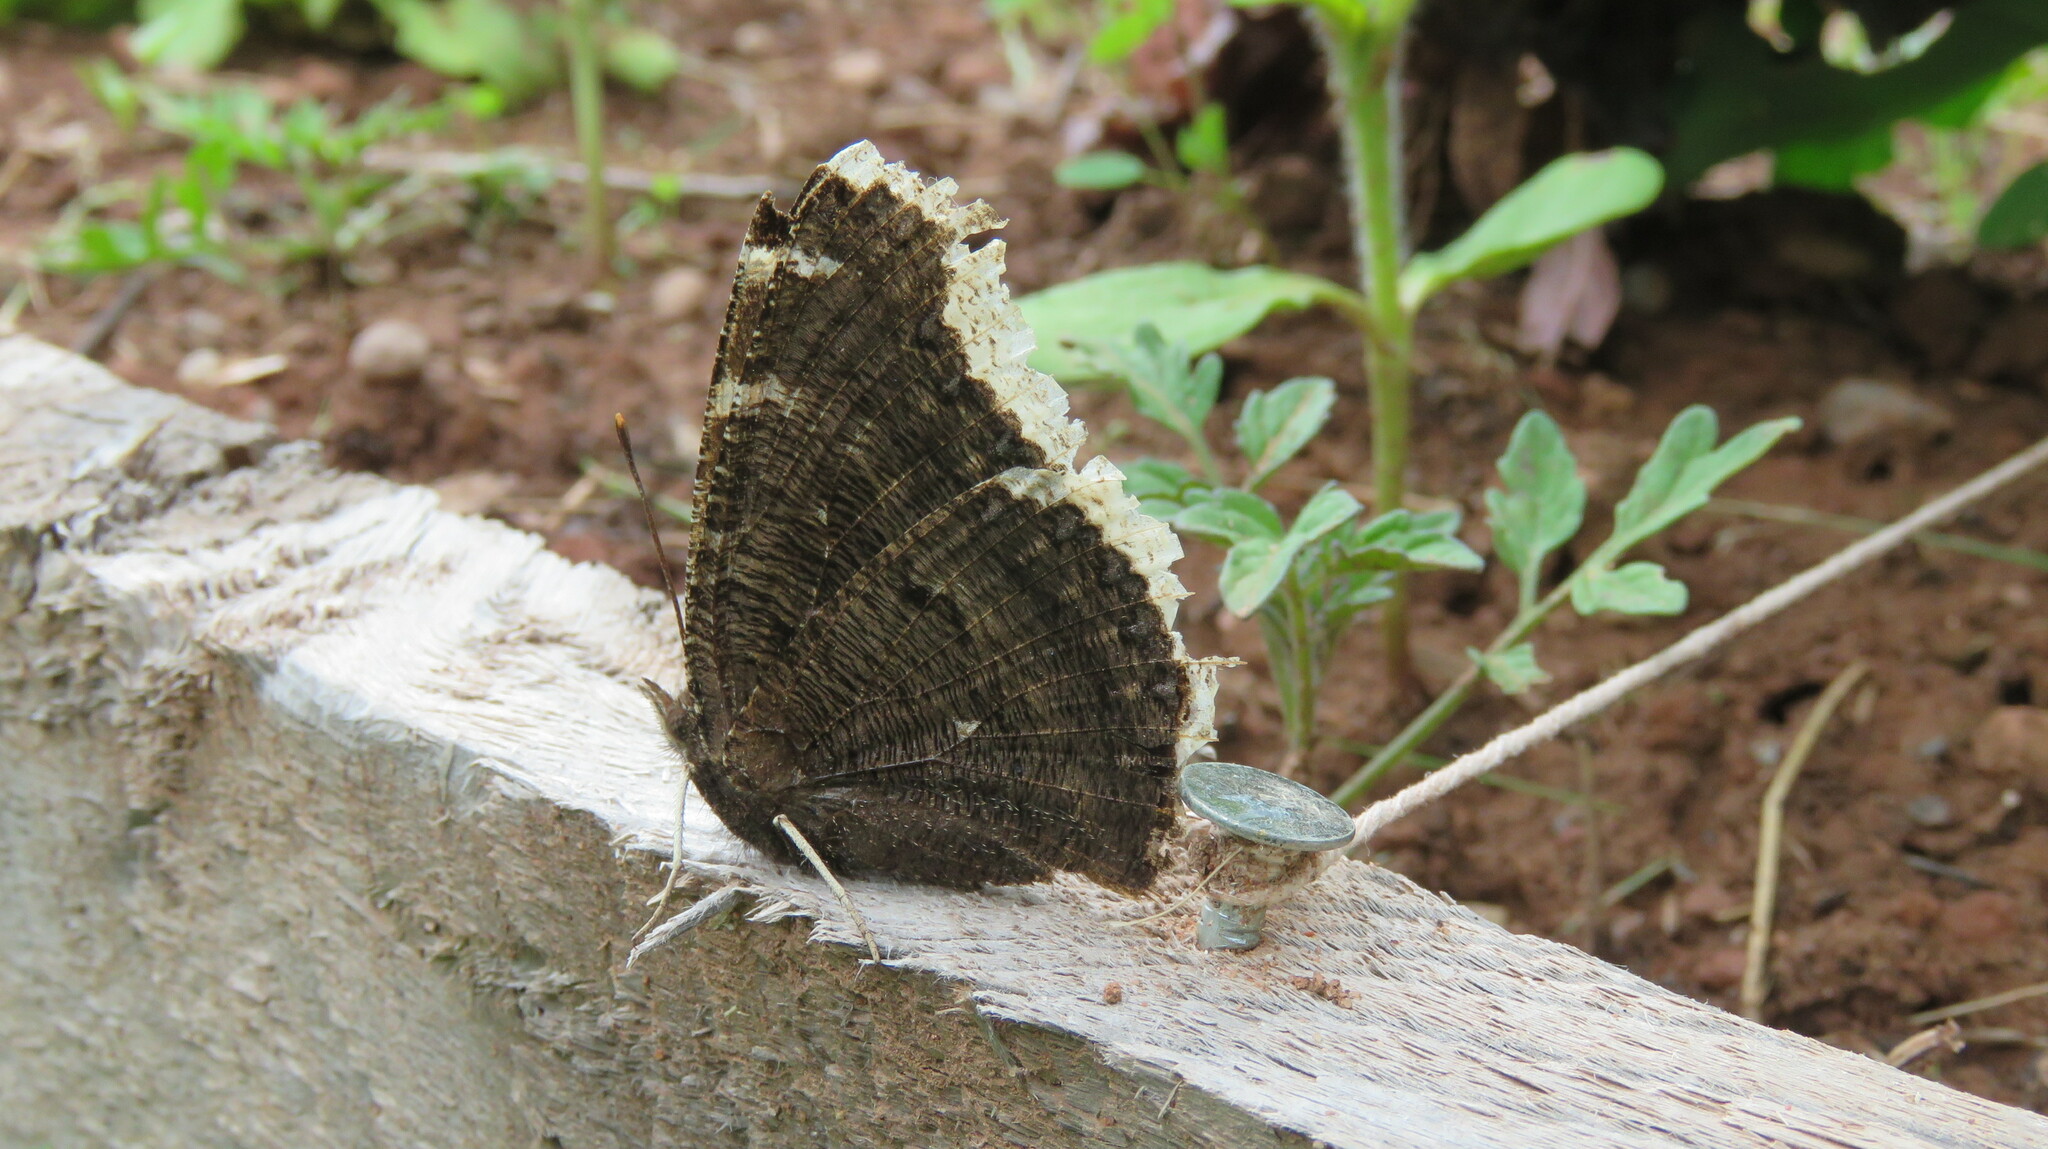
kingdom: Animalia
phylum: Arthropoda
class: Insecta
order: Lepidoptera
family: Nymphalidae
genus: Nymphalis
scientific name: Nymphalis antiopa
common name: Camberwell beauty
